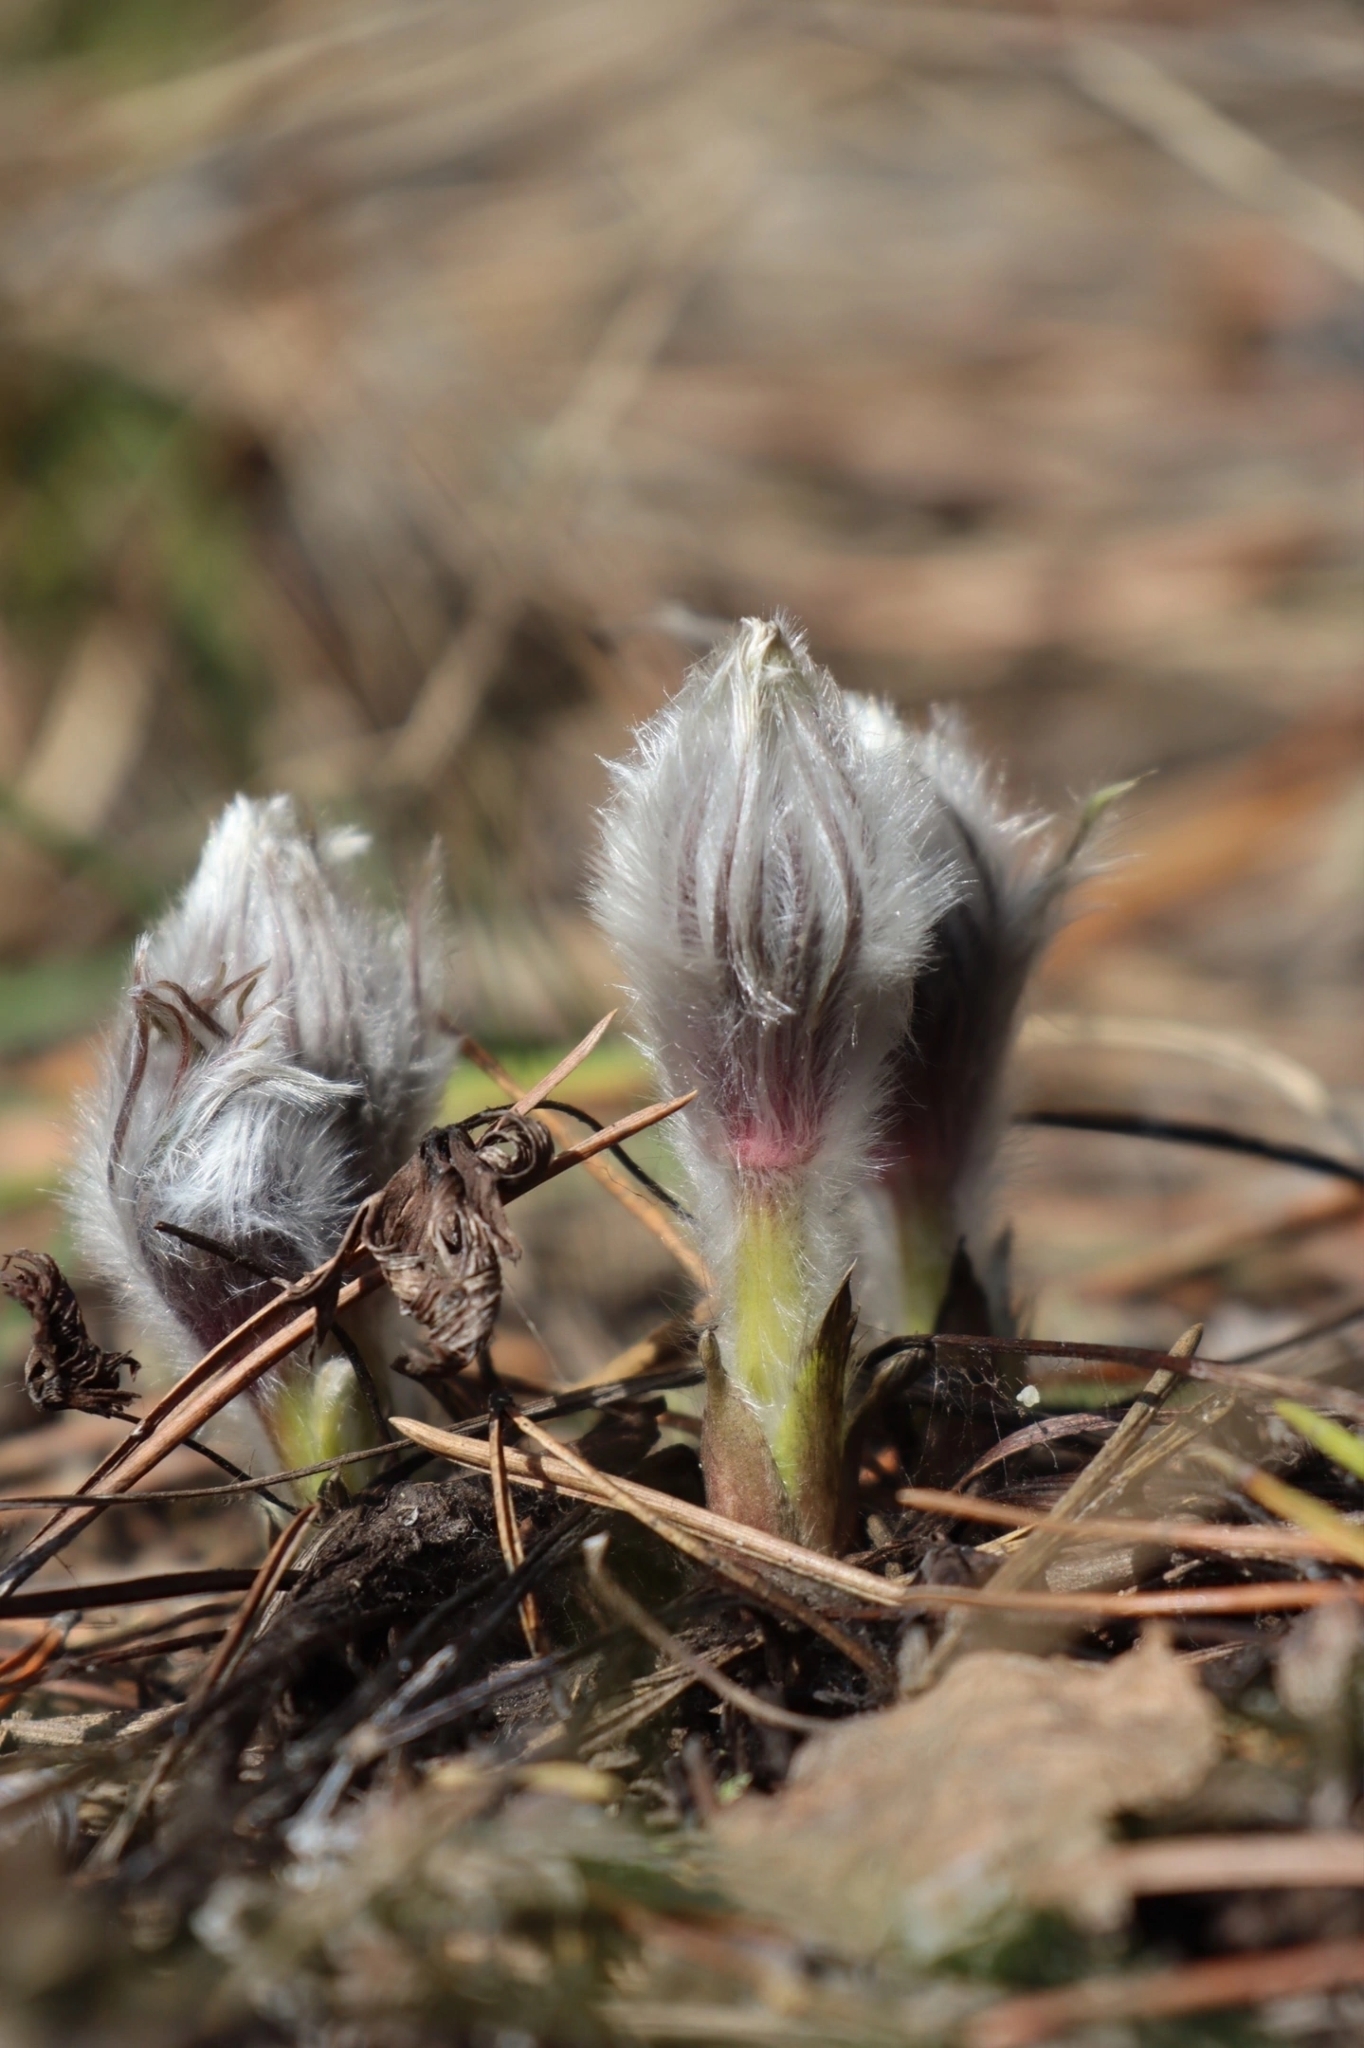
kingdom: Plantae
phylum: Tracheophyta
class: Magnoliopsida
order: Ranunculales
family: Ranunculaceae
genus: Pulsatilla
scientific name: Pulsatilla patens
